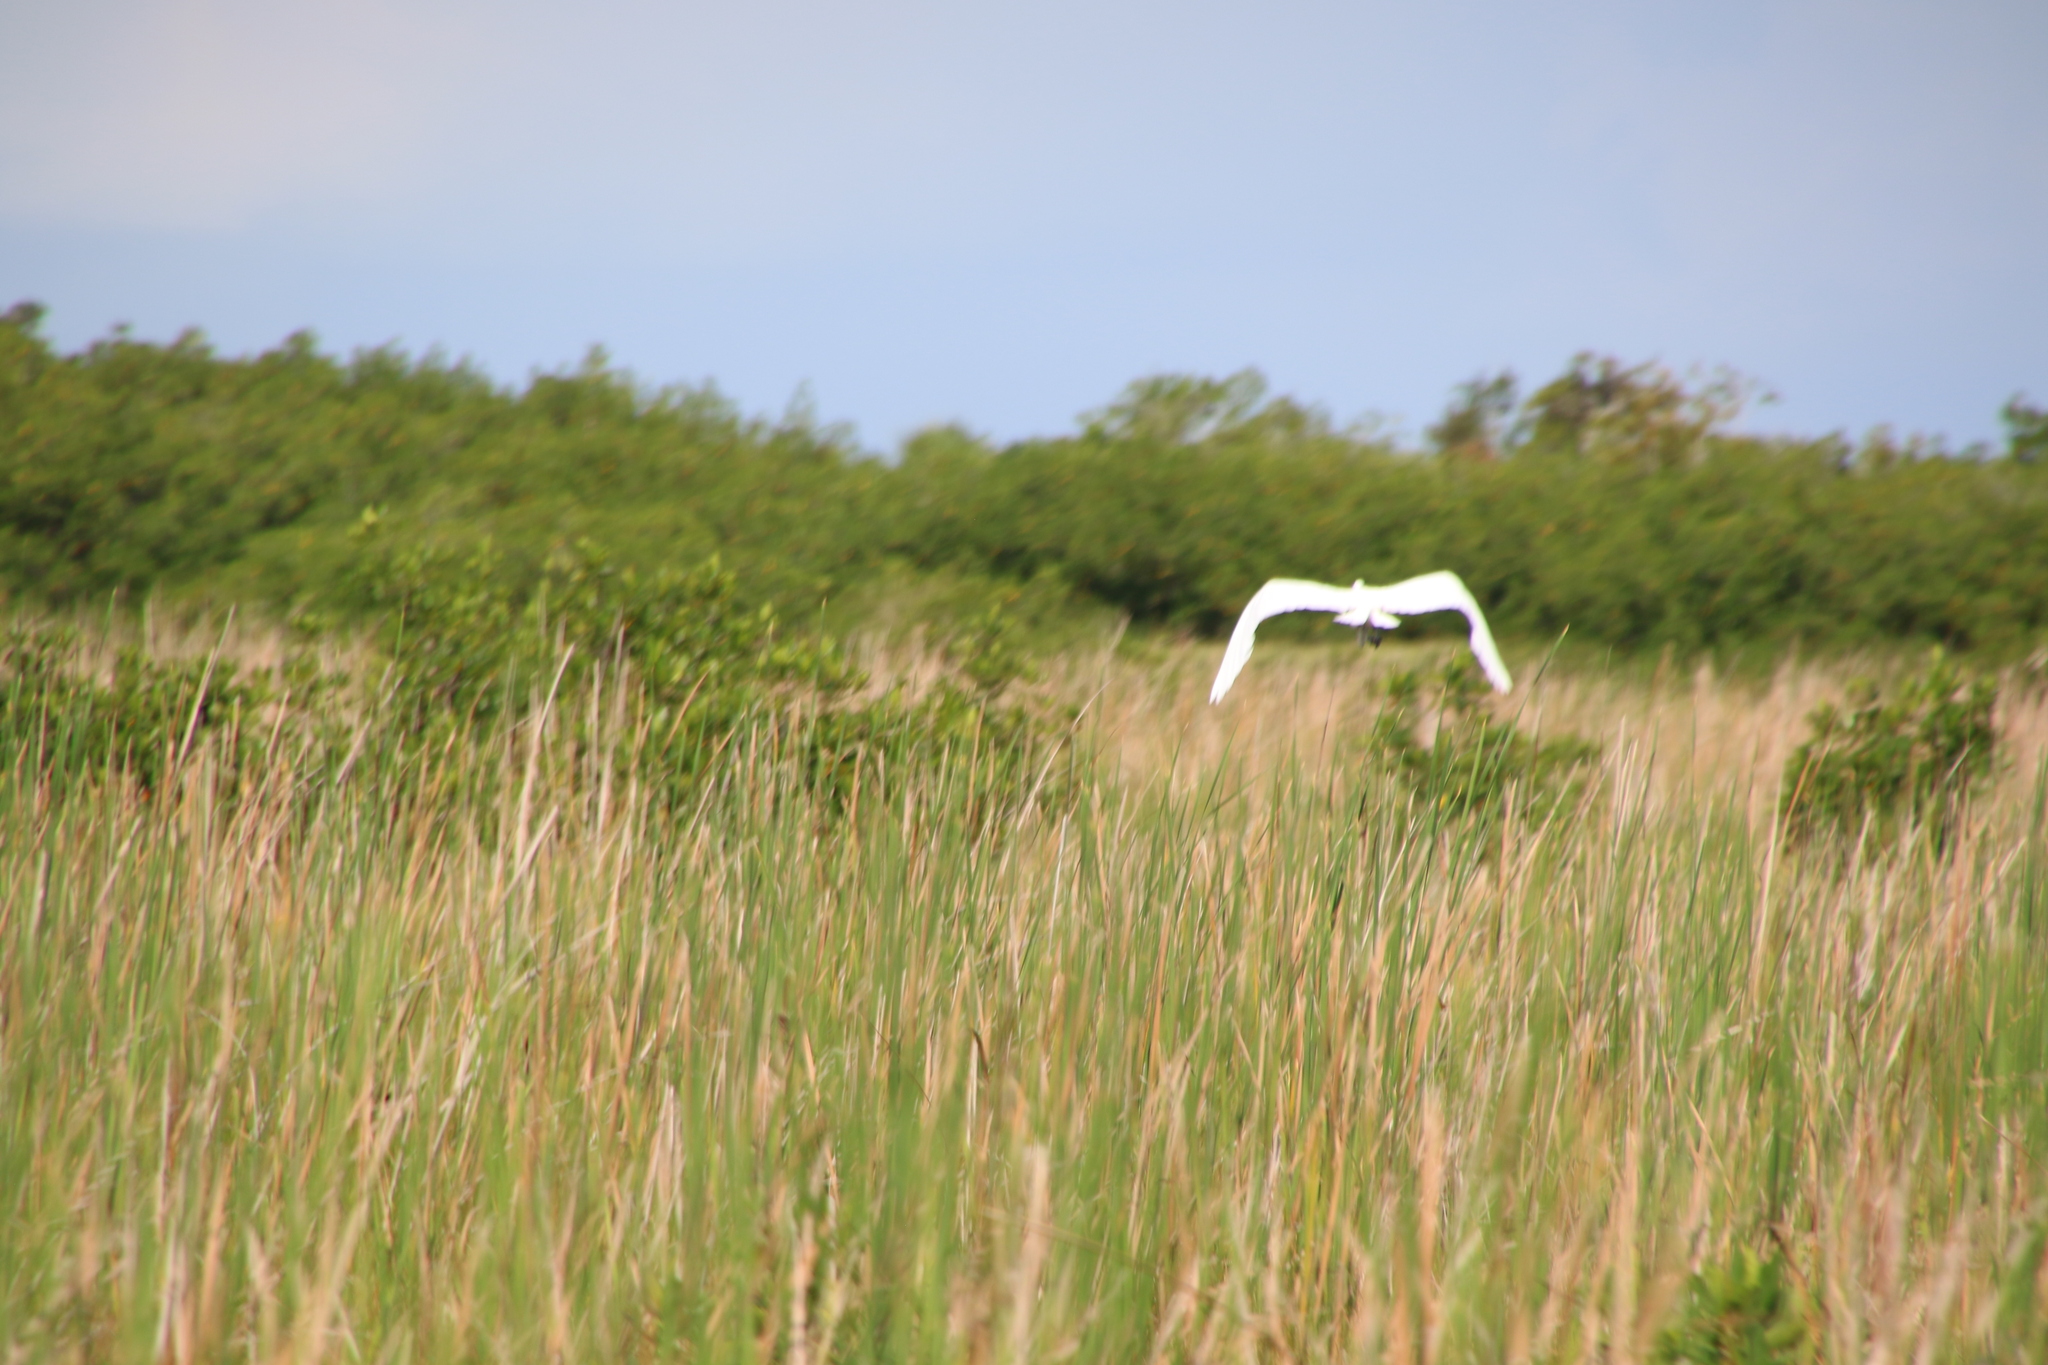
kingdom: Animalia
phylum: Chordata
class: Aves
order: Pelecaniformes
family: Ardeidae
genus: Ardea
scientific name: Ardea alba
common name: Great egret
